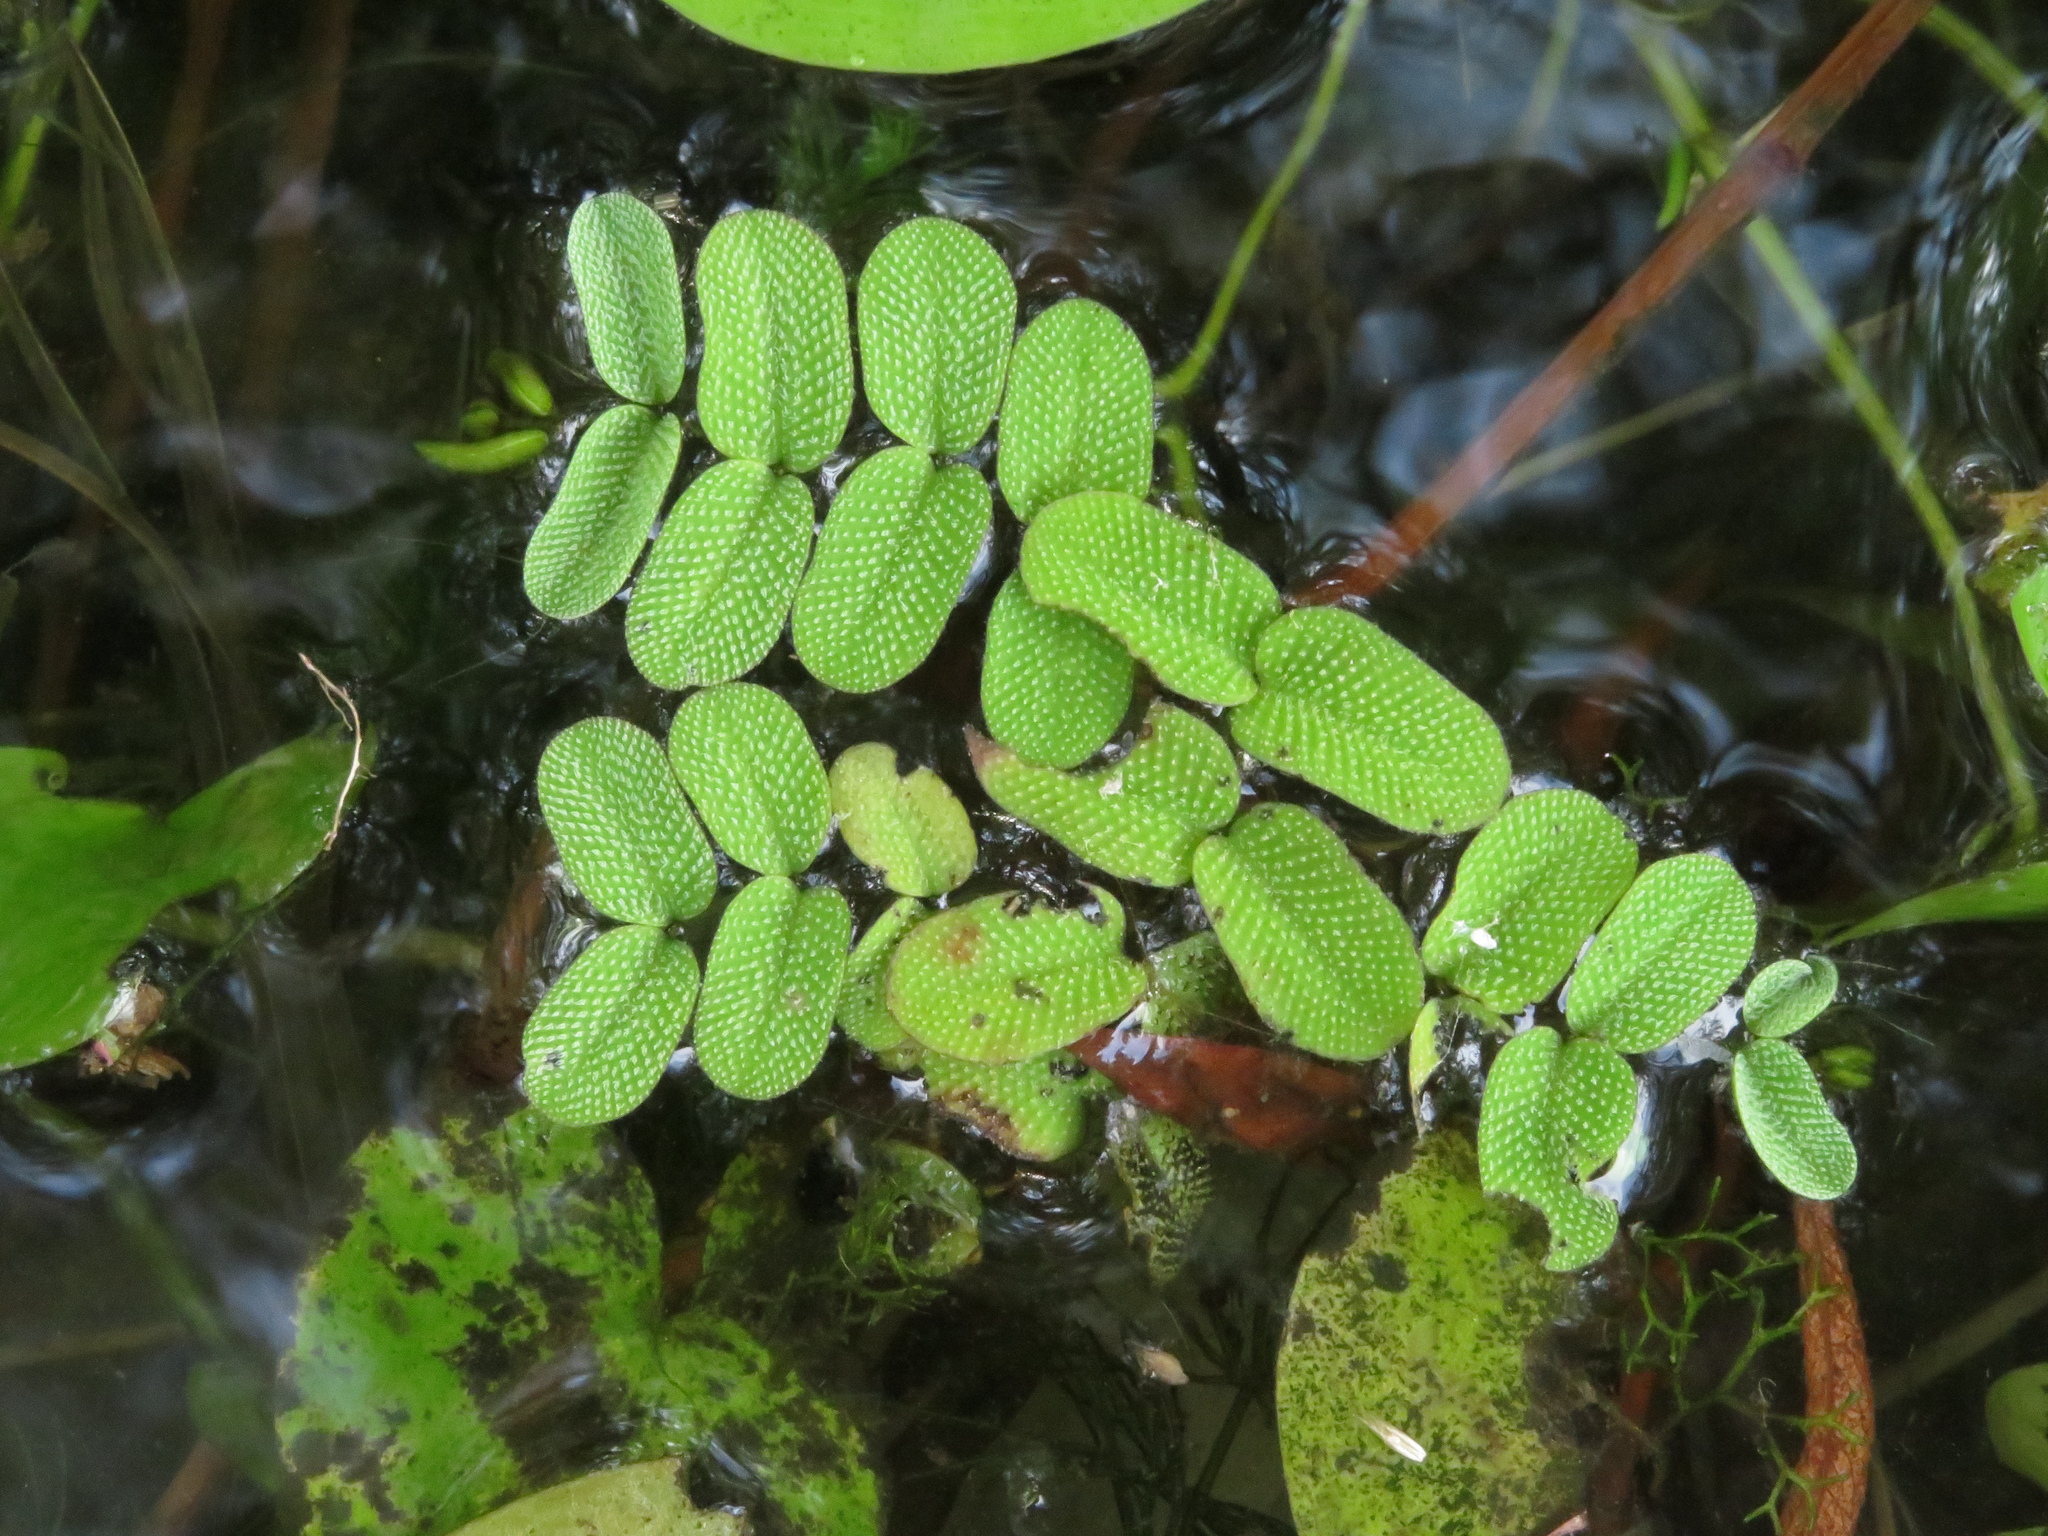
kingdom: Plantae
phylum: Tracheophyta
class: Polypodiopsida
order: Salviniales
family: Salviniaceae
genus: Salvinia
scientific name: Salvinia natans
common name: Floating fern
